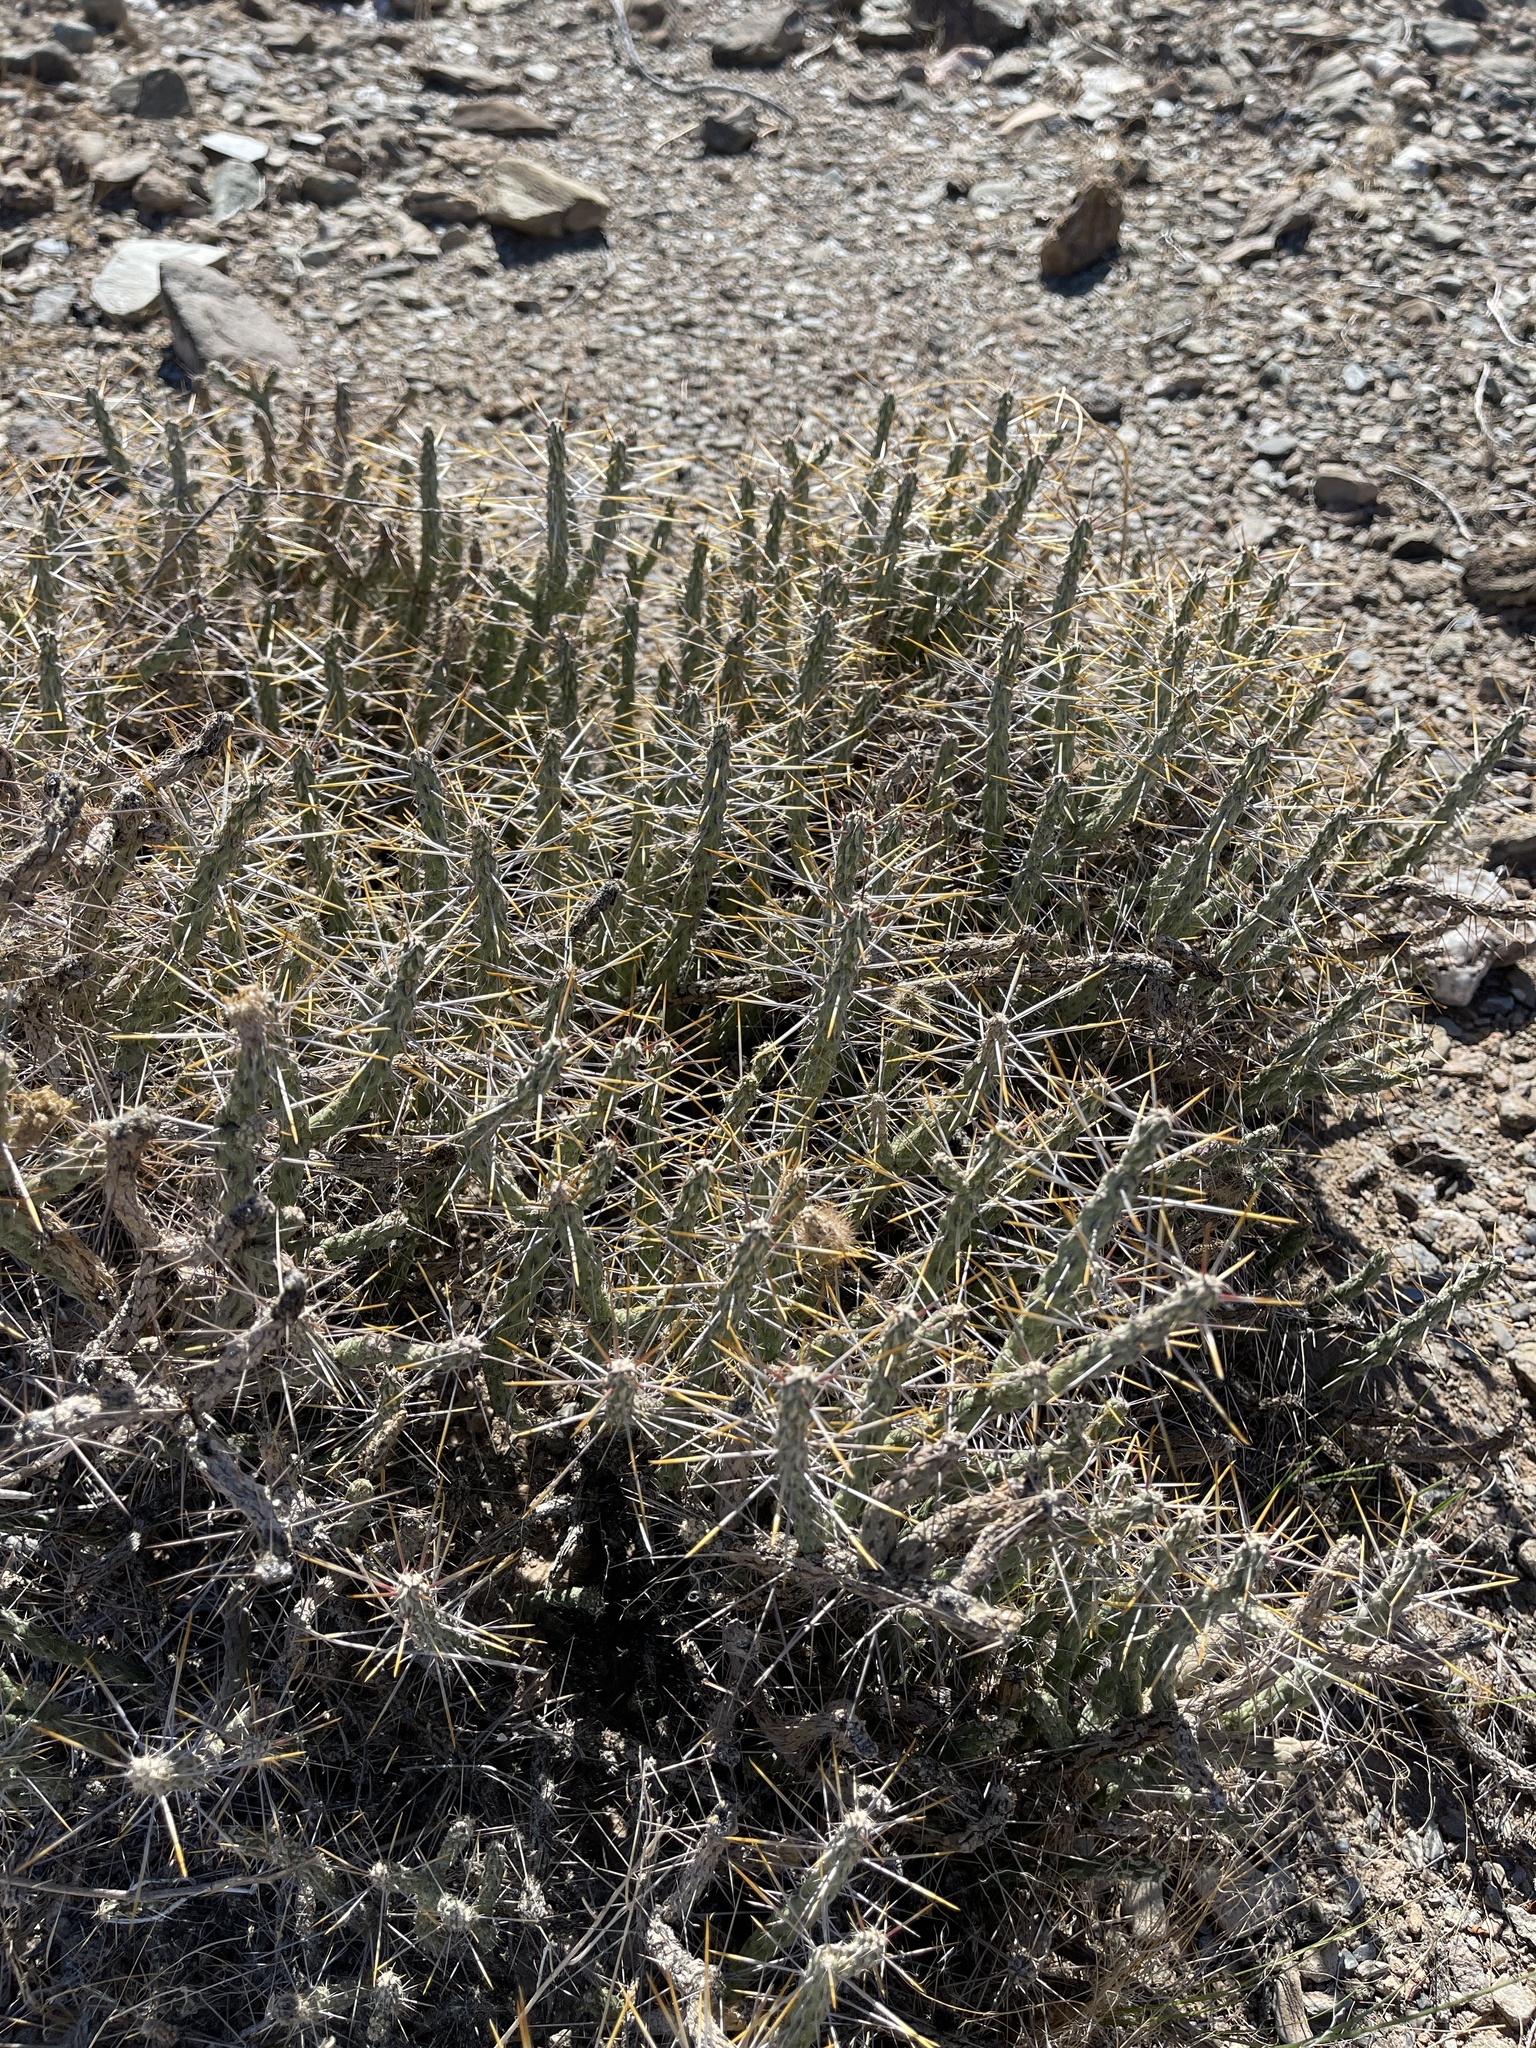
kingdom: Plantae
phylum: Tracheophyta
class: Magnoliopsida
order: Caryophyllales
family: Cactaceae
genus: Cylindropuntia
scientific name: Cylindropuntia ramosissima
